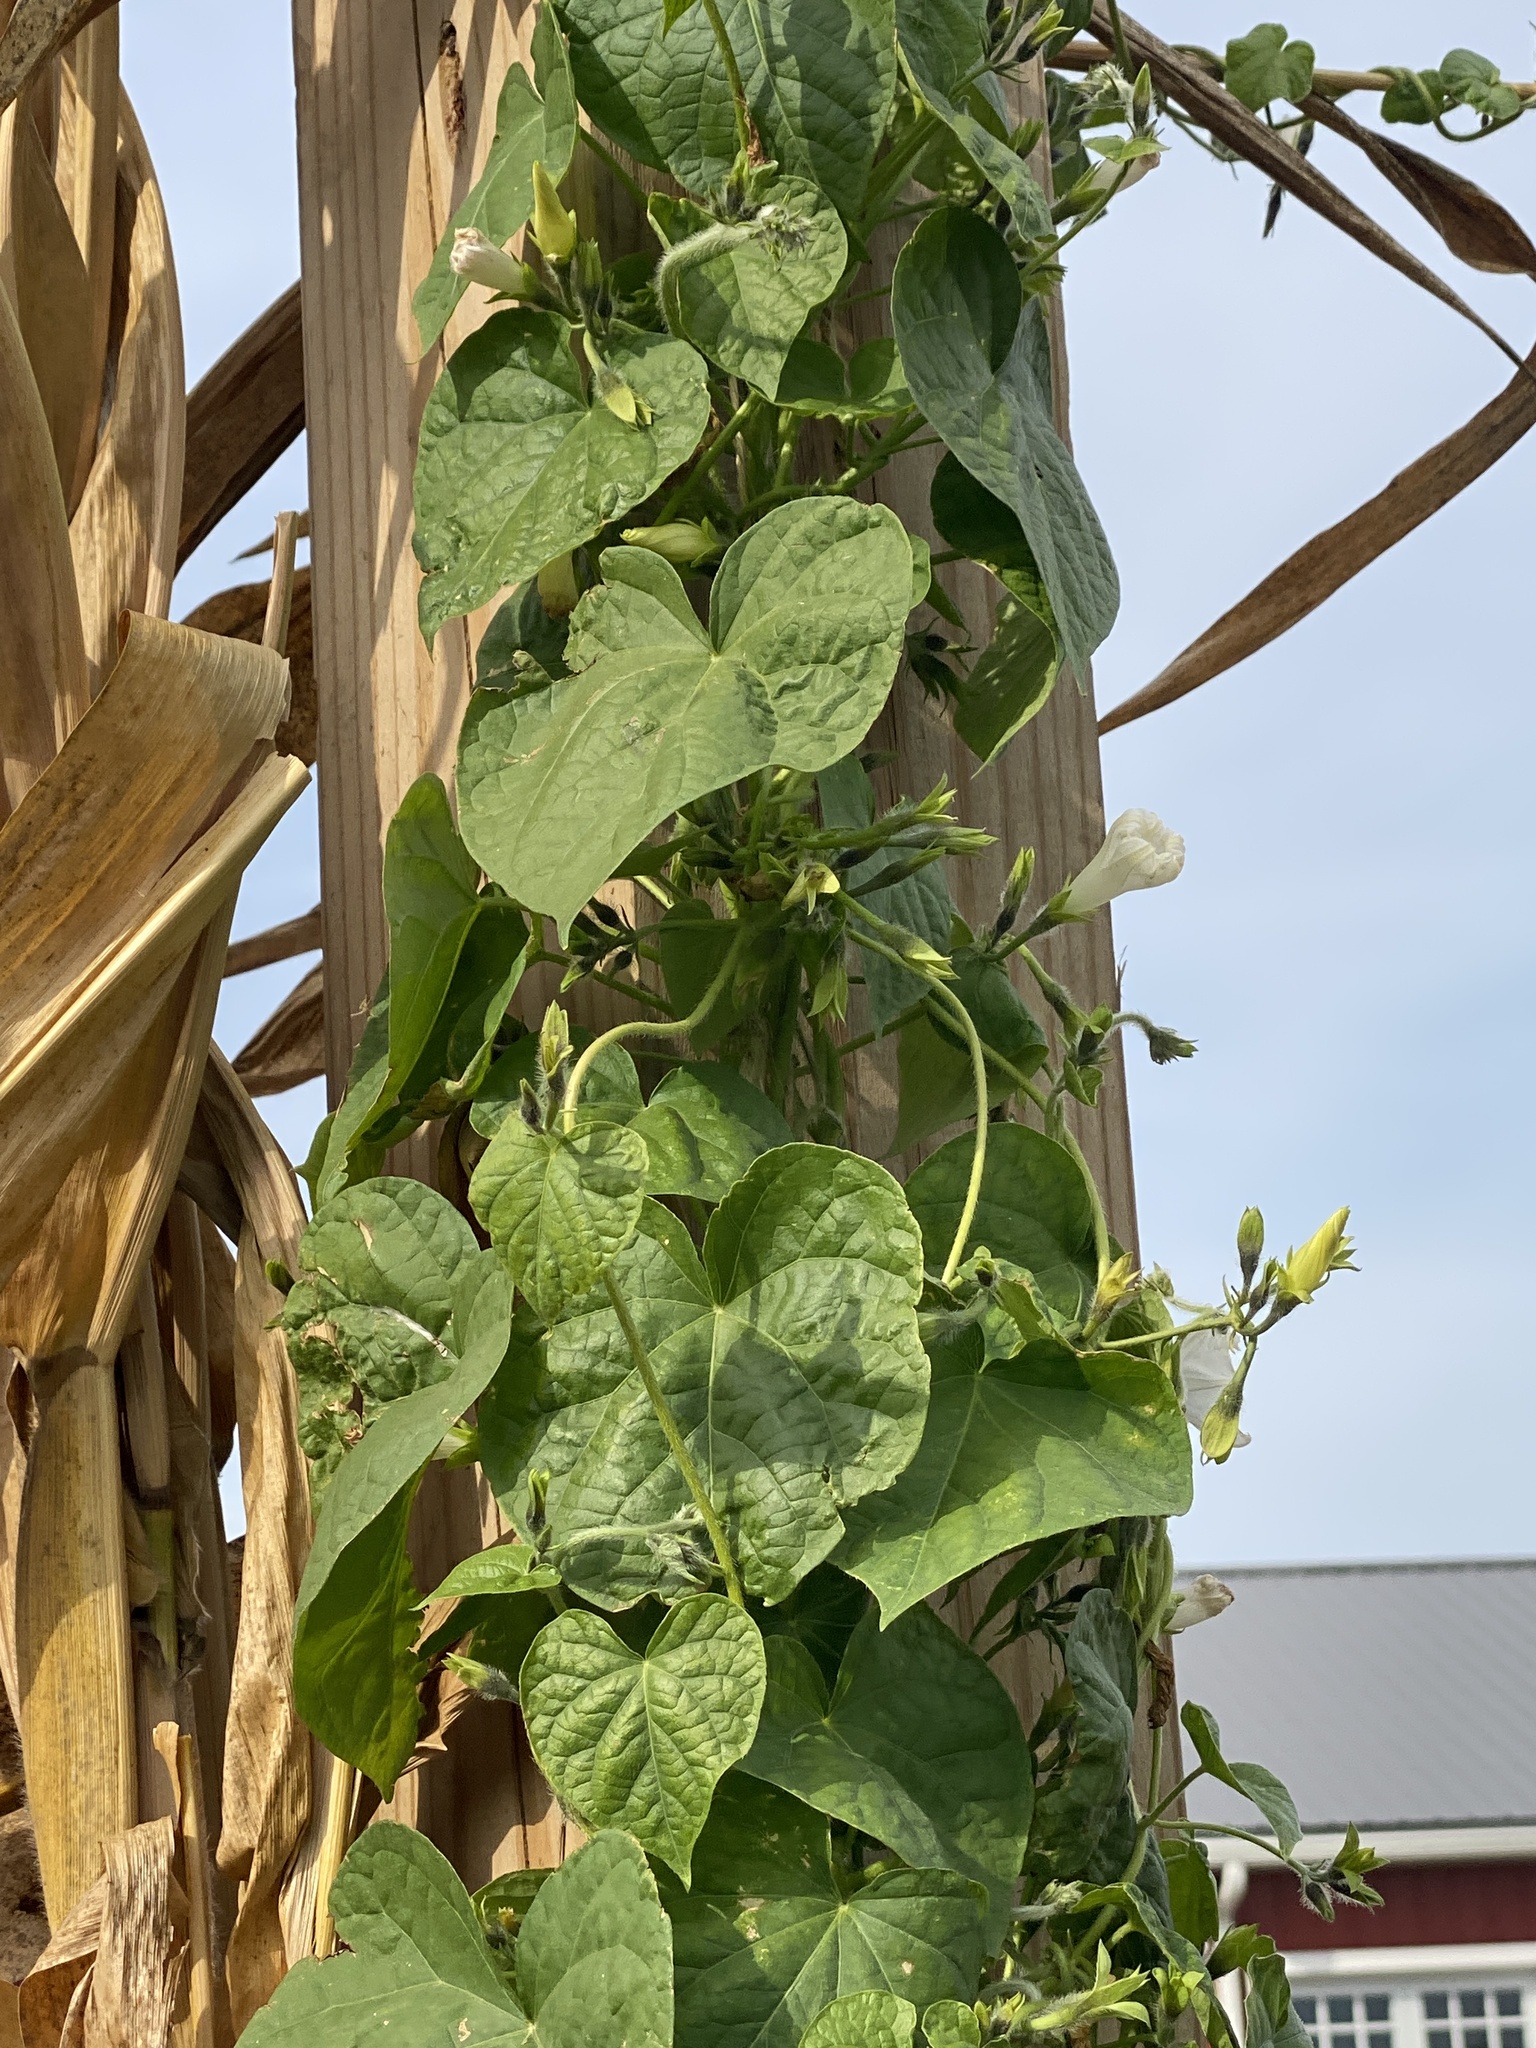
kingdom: Plantae
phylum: Tracheophyta
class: Magnoliopsida
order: Solanales
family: Convolvulaceae
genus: Ipomoea
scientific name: Ipomoea purpurea
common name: Common morning-glory
